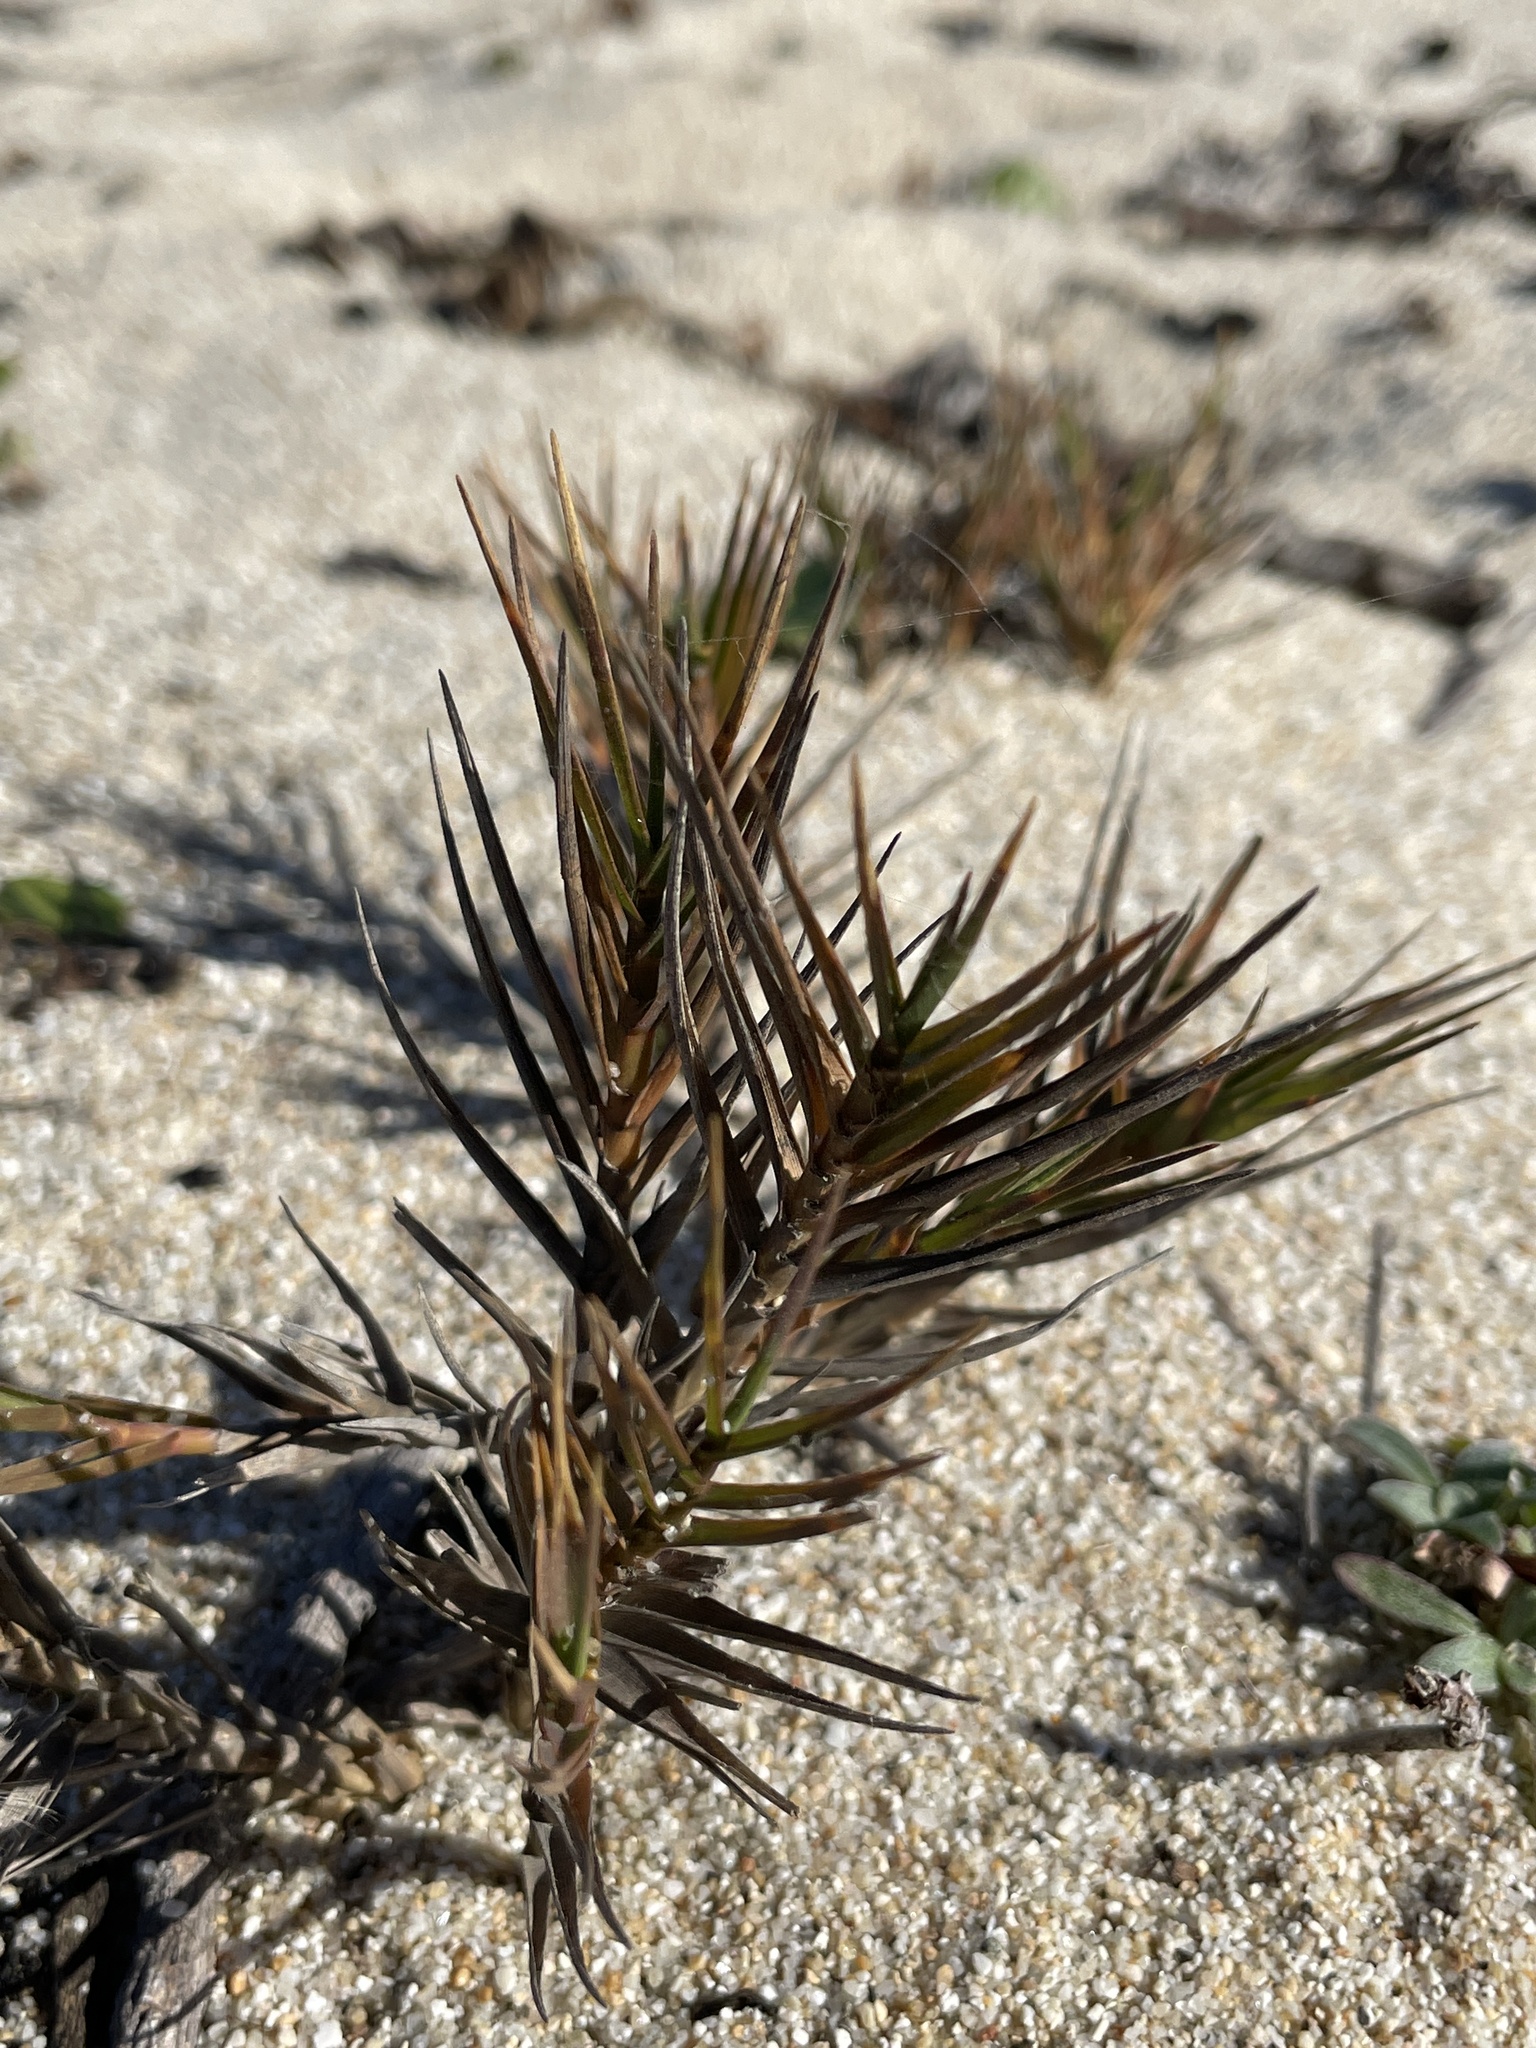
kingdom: Plantae
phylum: Tracheophyta
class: Liliopsida
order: Poales
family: Poaceae
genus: Distichlis
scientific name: Distichlis spicata
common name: Saltgrass
